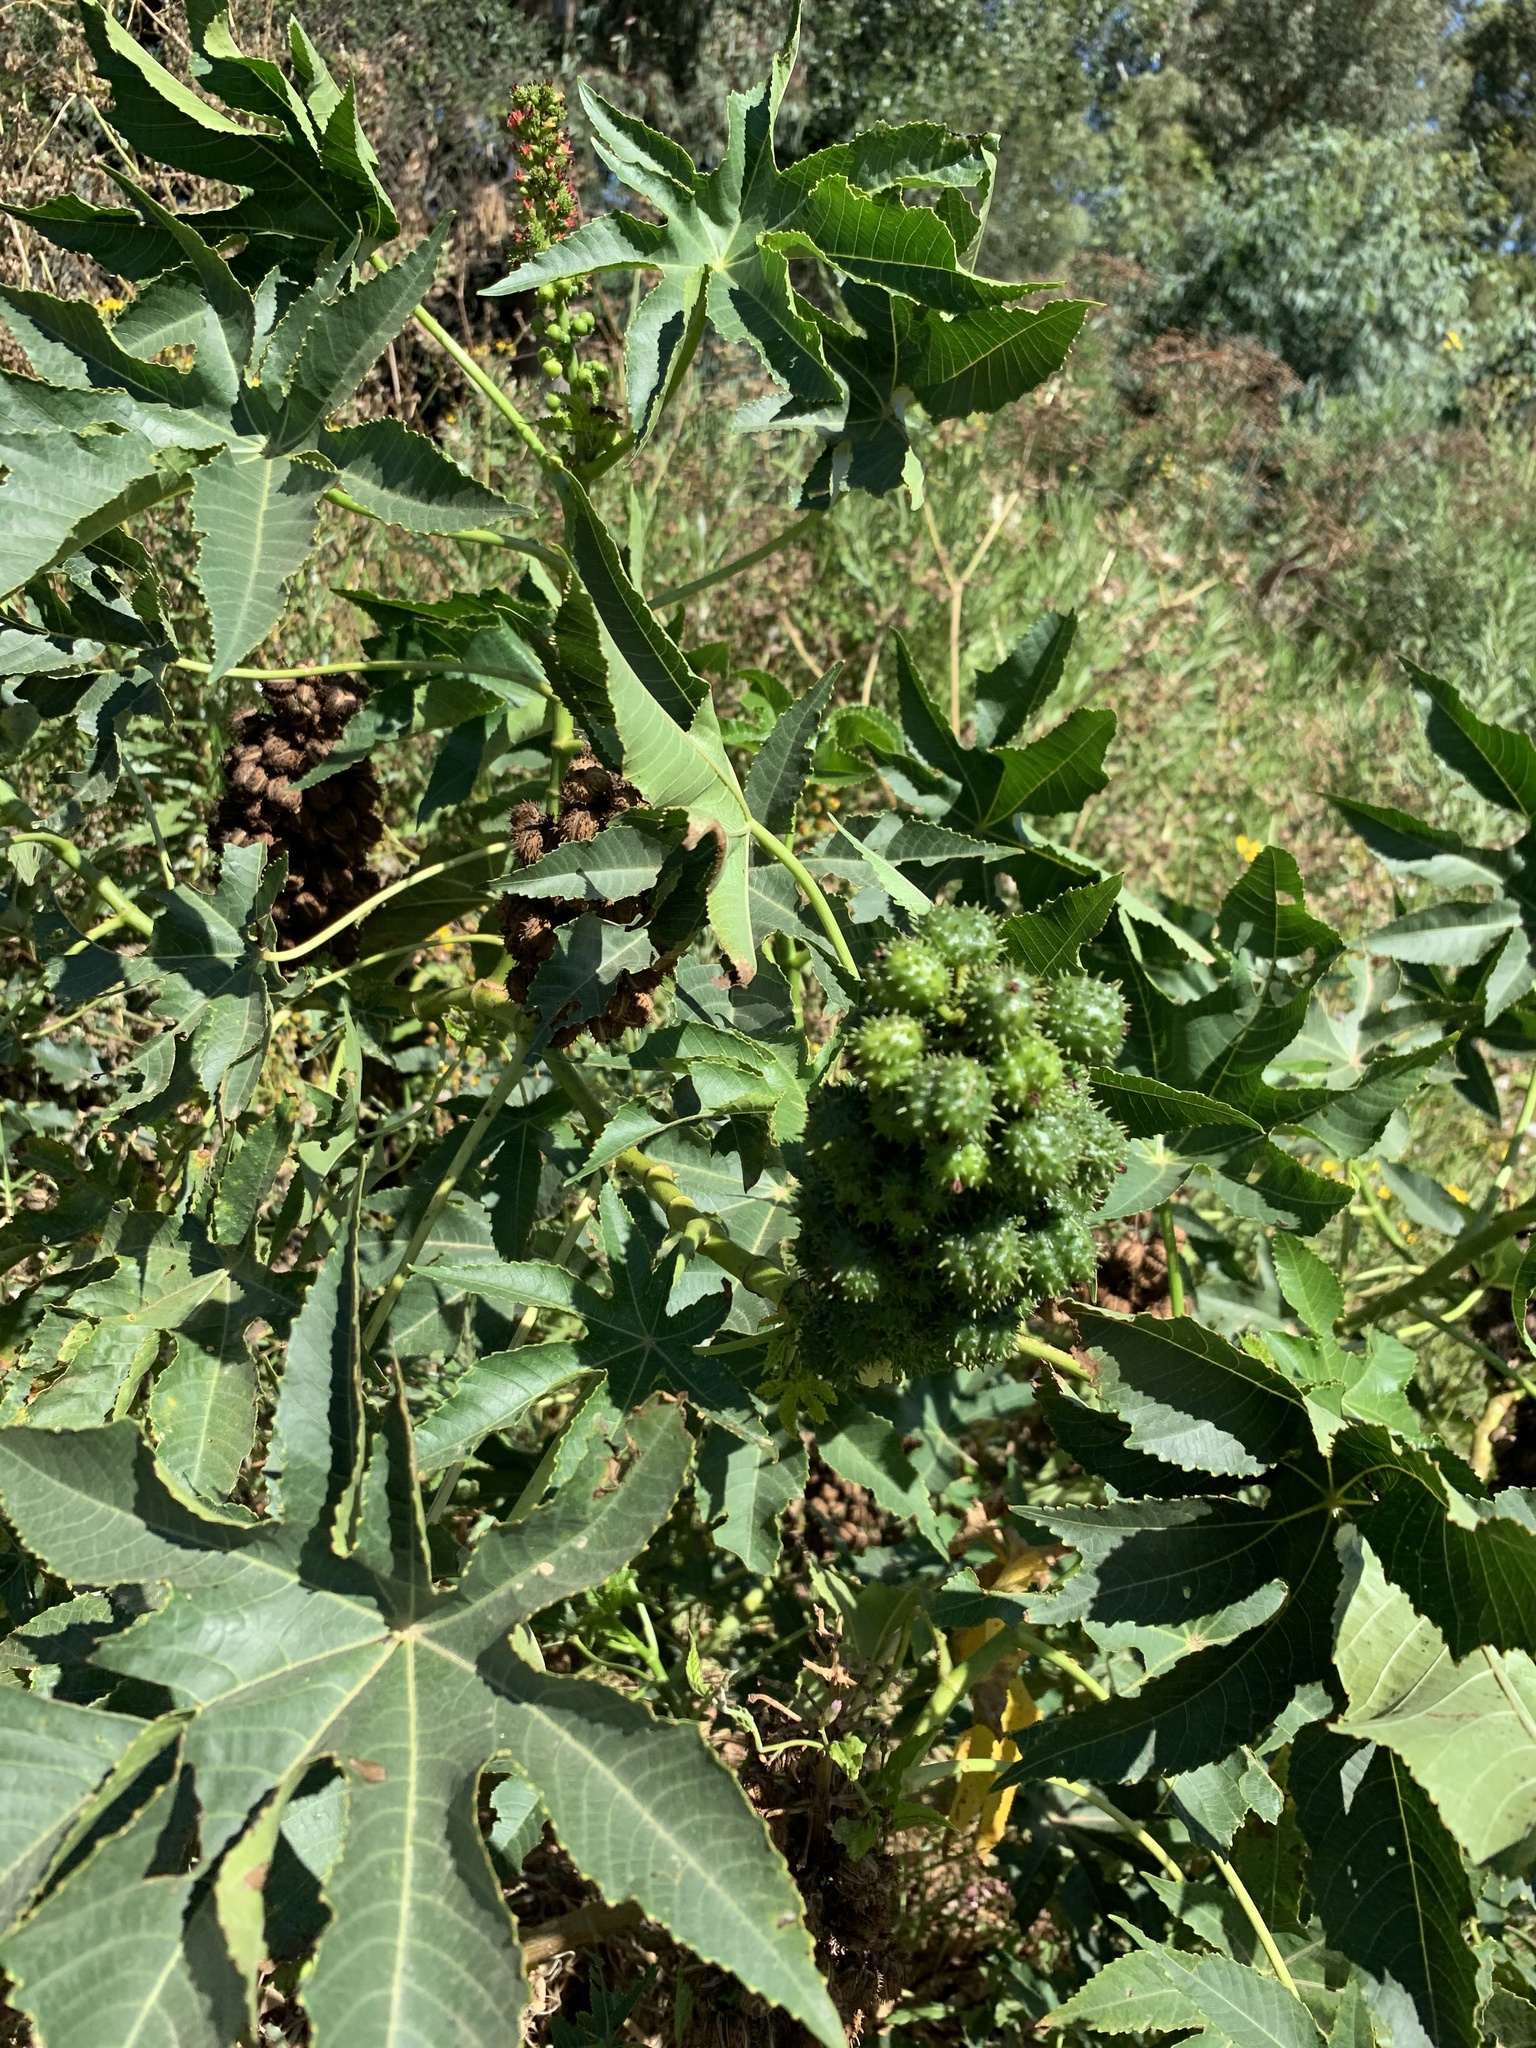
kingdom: Plantae
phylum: Tracheophyta
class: Magnoliopsida
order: Malpighiales
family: Euphorbiaceae
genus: Ricinus
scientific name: Ricinus communis
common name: Castor-oil-plant
